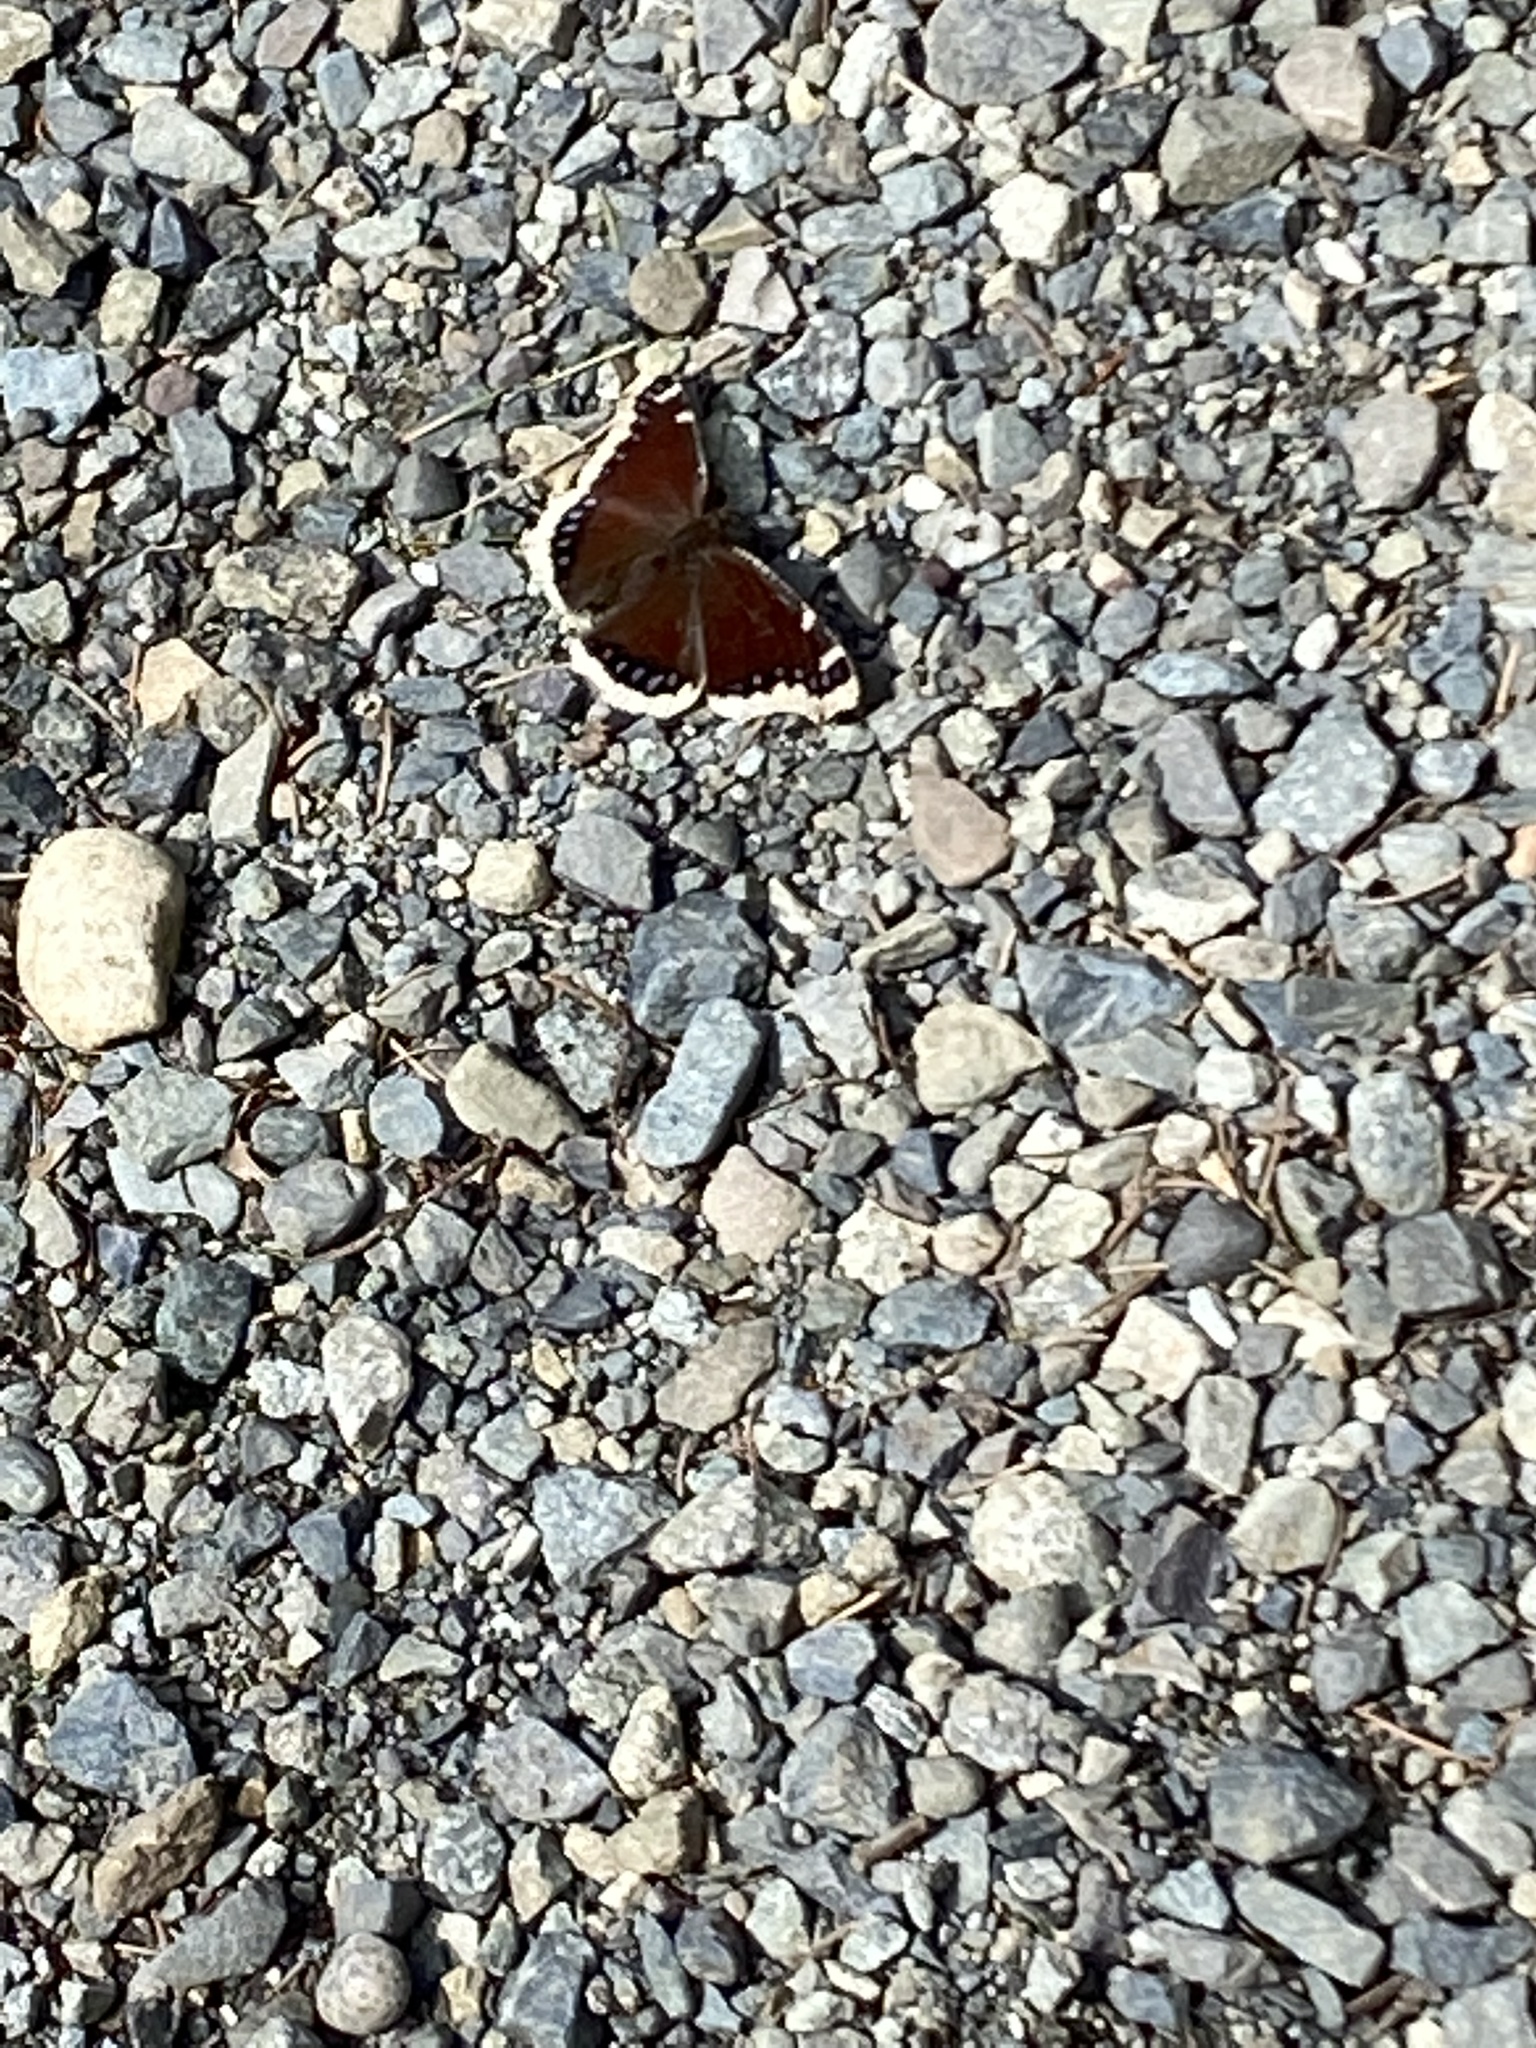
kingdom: Animalia
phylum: Arthropoda
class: Insecta
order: Lepidoptera
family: Nymphalidae
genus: Nymphalis
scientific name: Nymphalis antiopa
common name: Camberwell beauty
